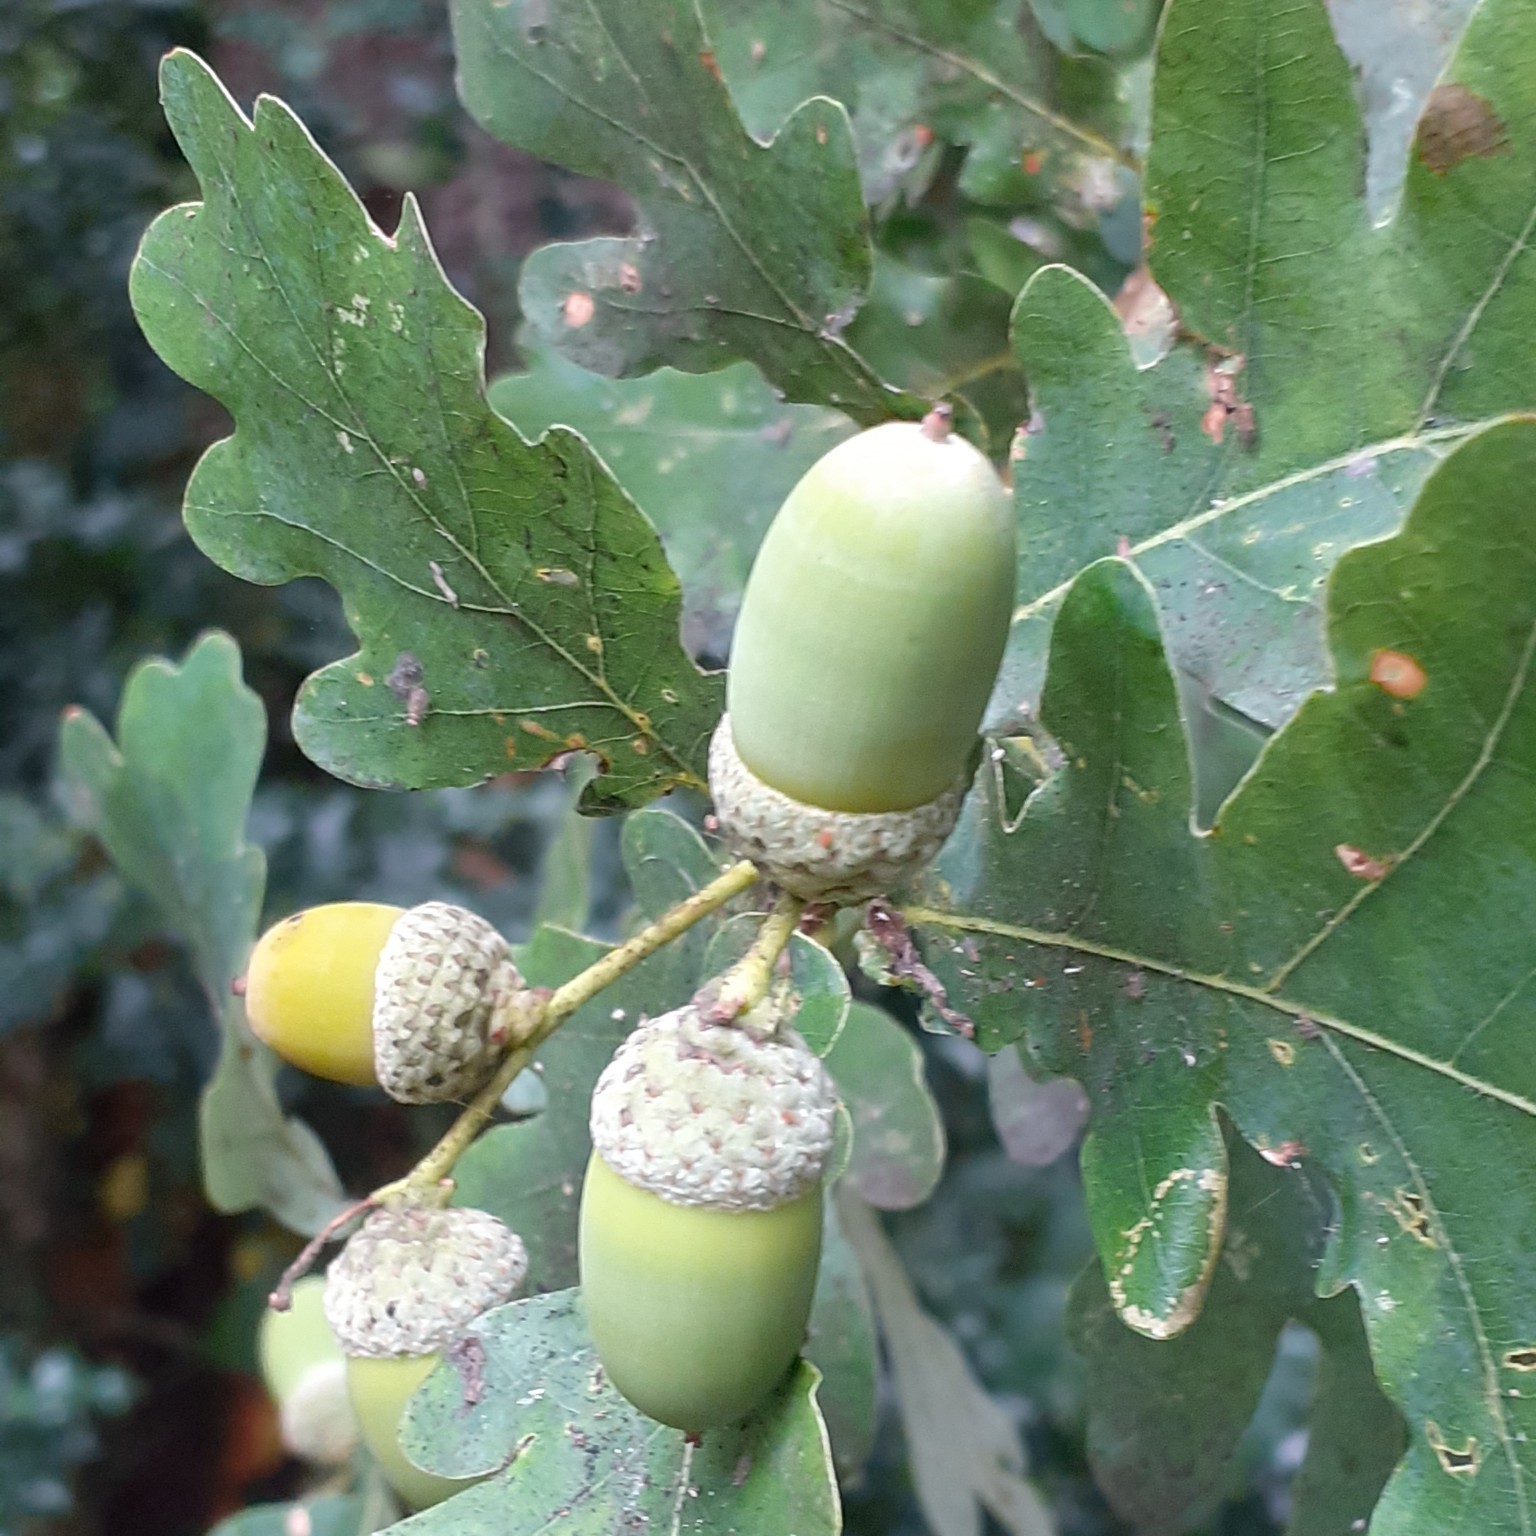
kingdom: Plantae
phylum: Tracheophyta
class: Magnoliopsida
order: Fagales
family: Fagaceae
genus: Quercus
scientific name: Quercus robur
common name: Pedunculate oak
